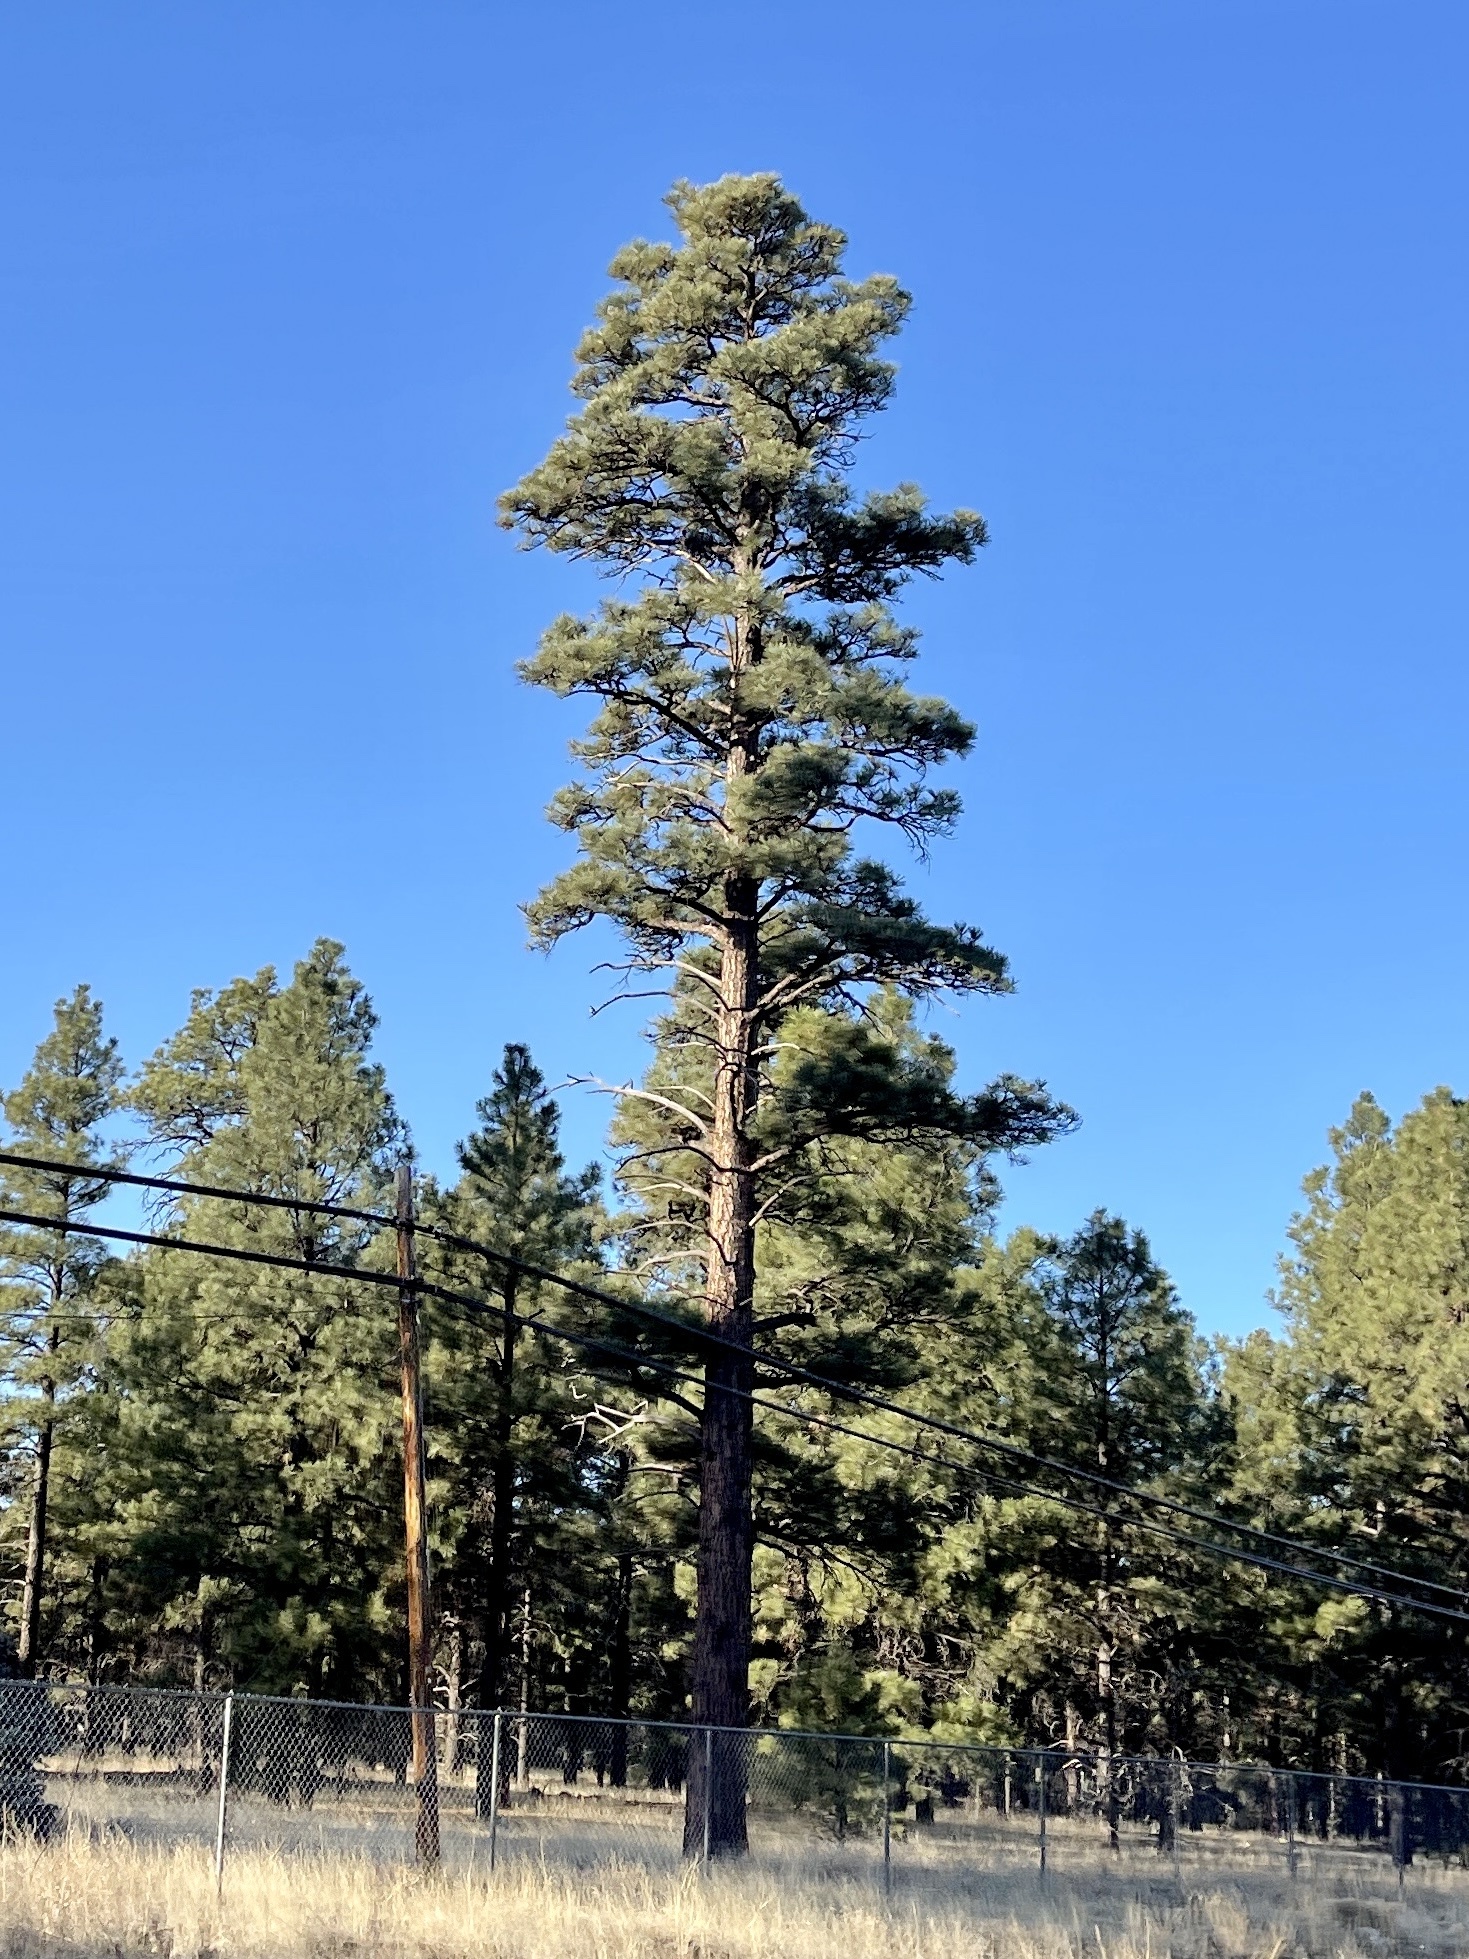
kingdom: Plantae
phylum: Tracheophyta
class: Pinopsida
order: Pinales
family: Pinaceae
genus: Pinus
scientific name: Pinus ponderosa
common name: Western yellow-pine
